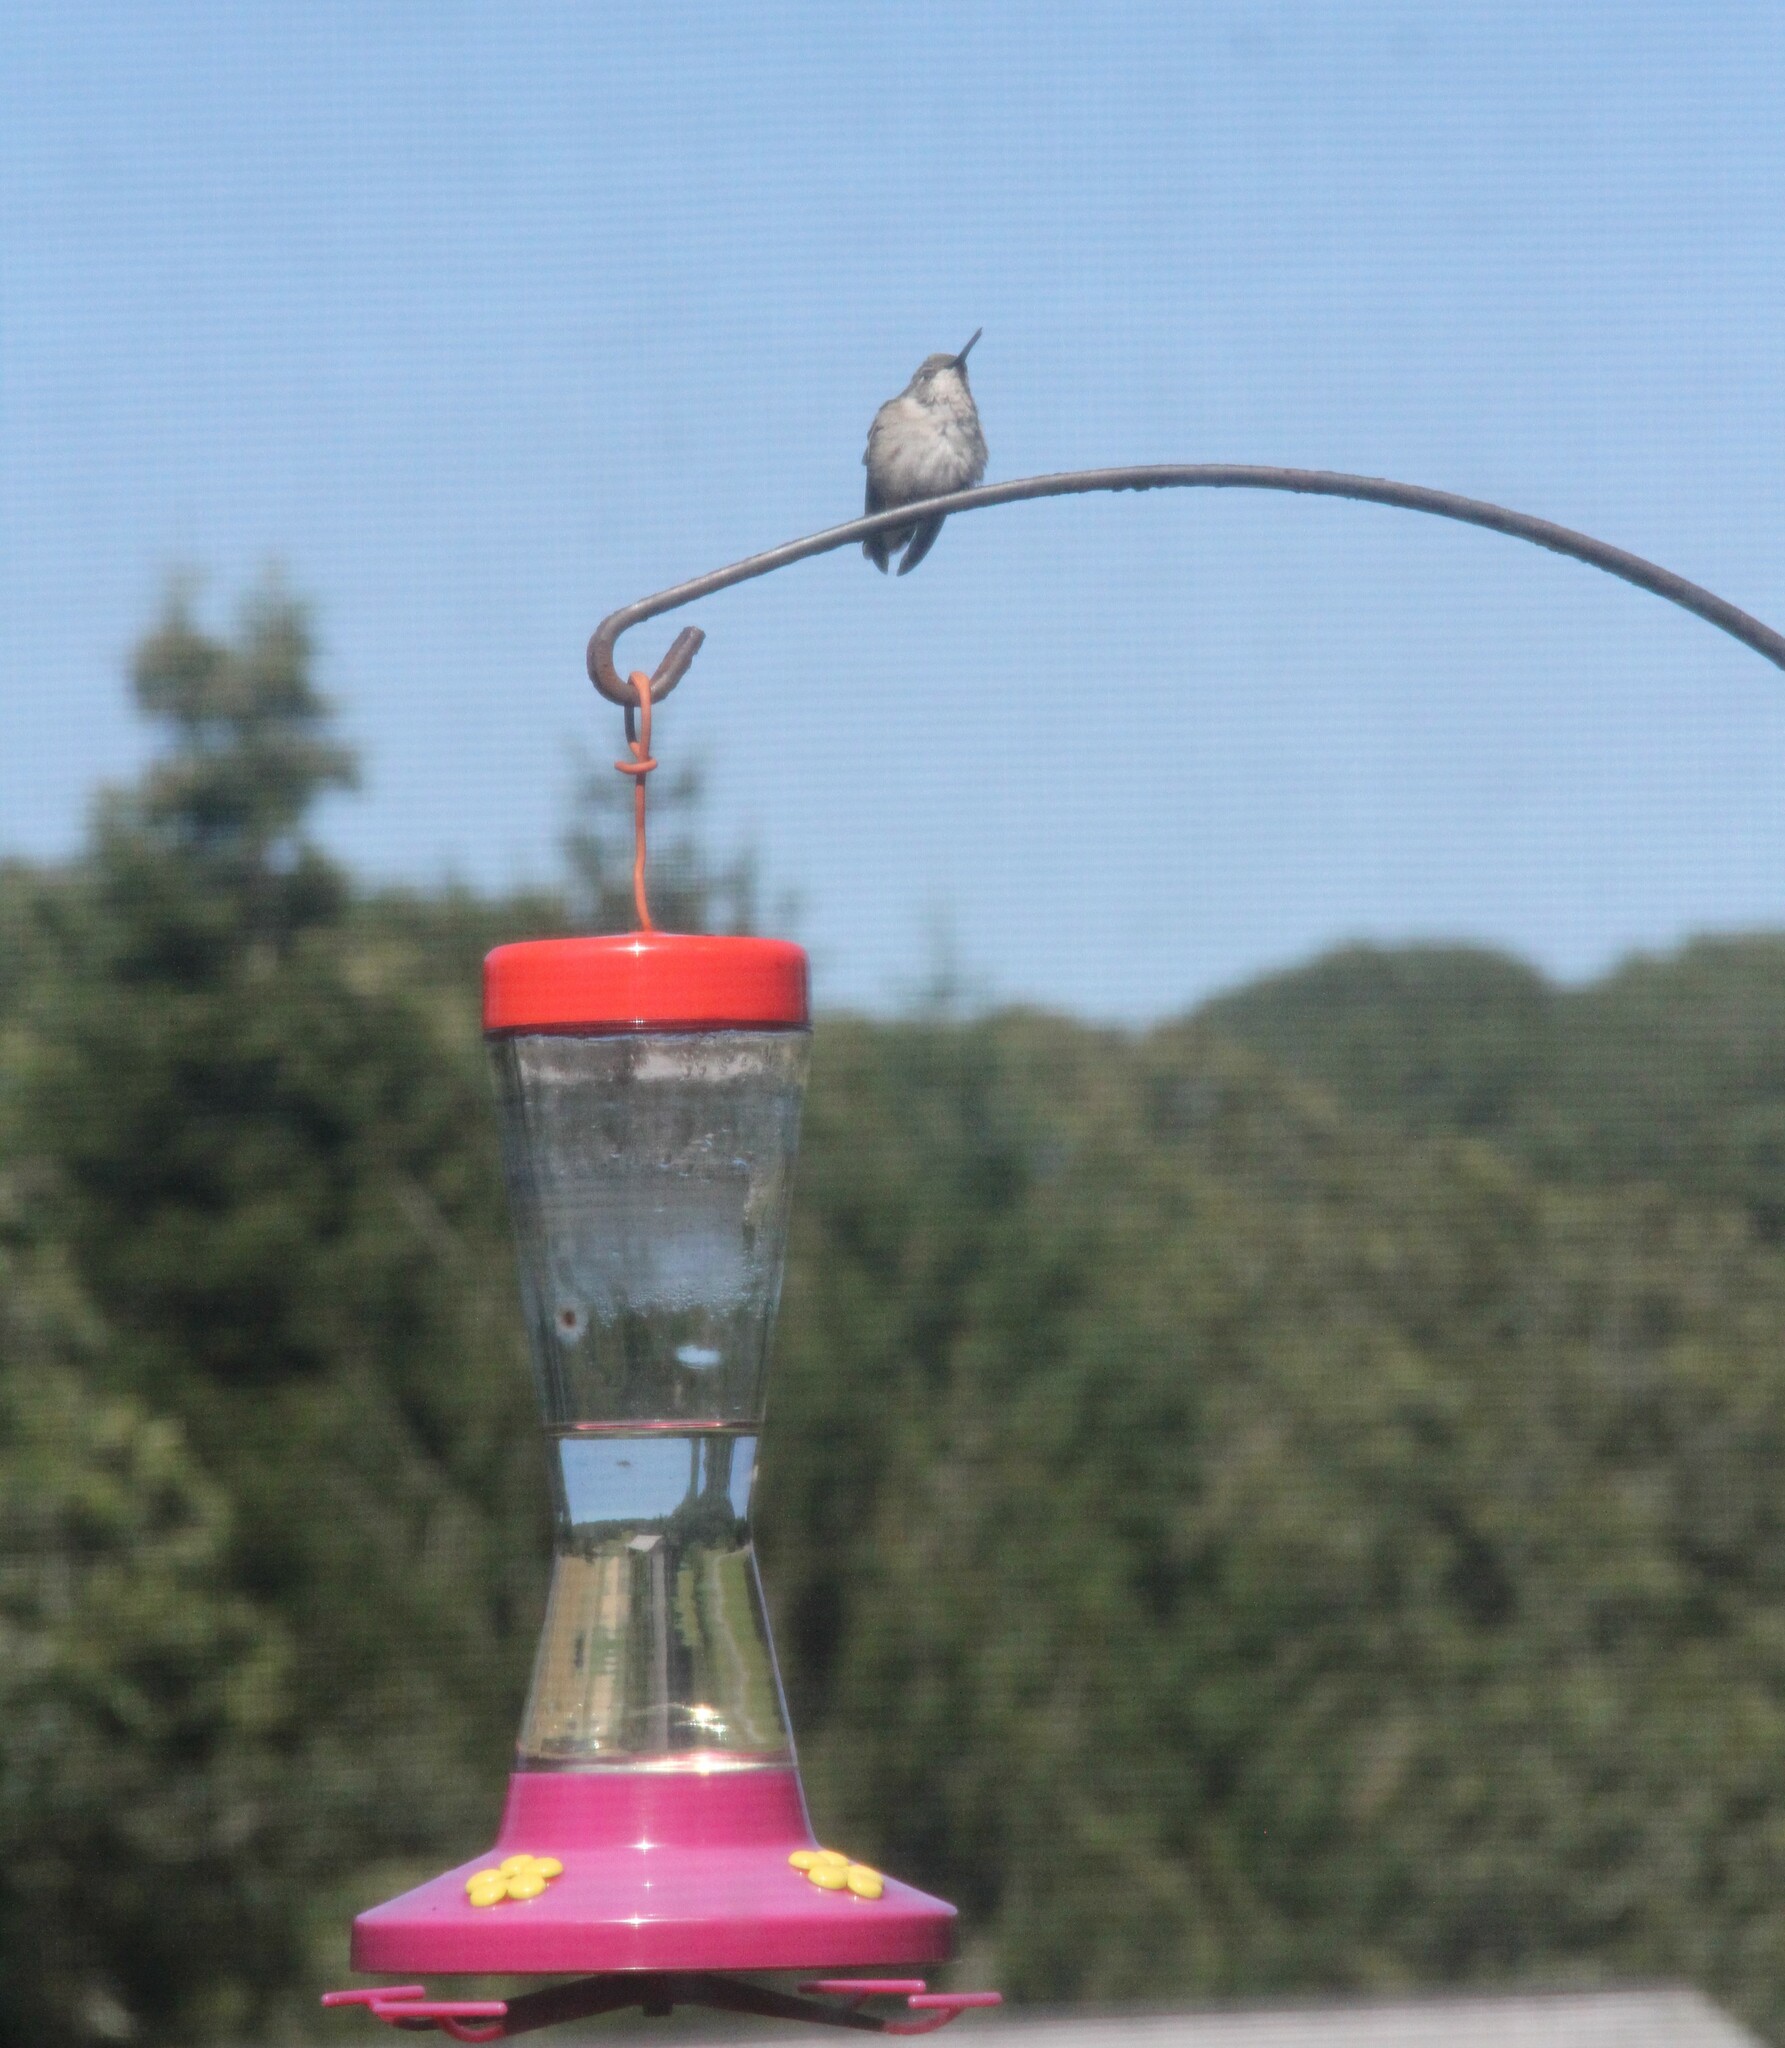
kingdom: Animalia
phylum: Chordata
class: Aves
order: Apodiformes
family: Trochilidae
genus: Archilochus
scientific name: Archilochus colubris
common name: Ruby-throated hummingbird
